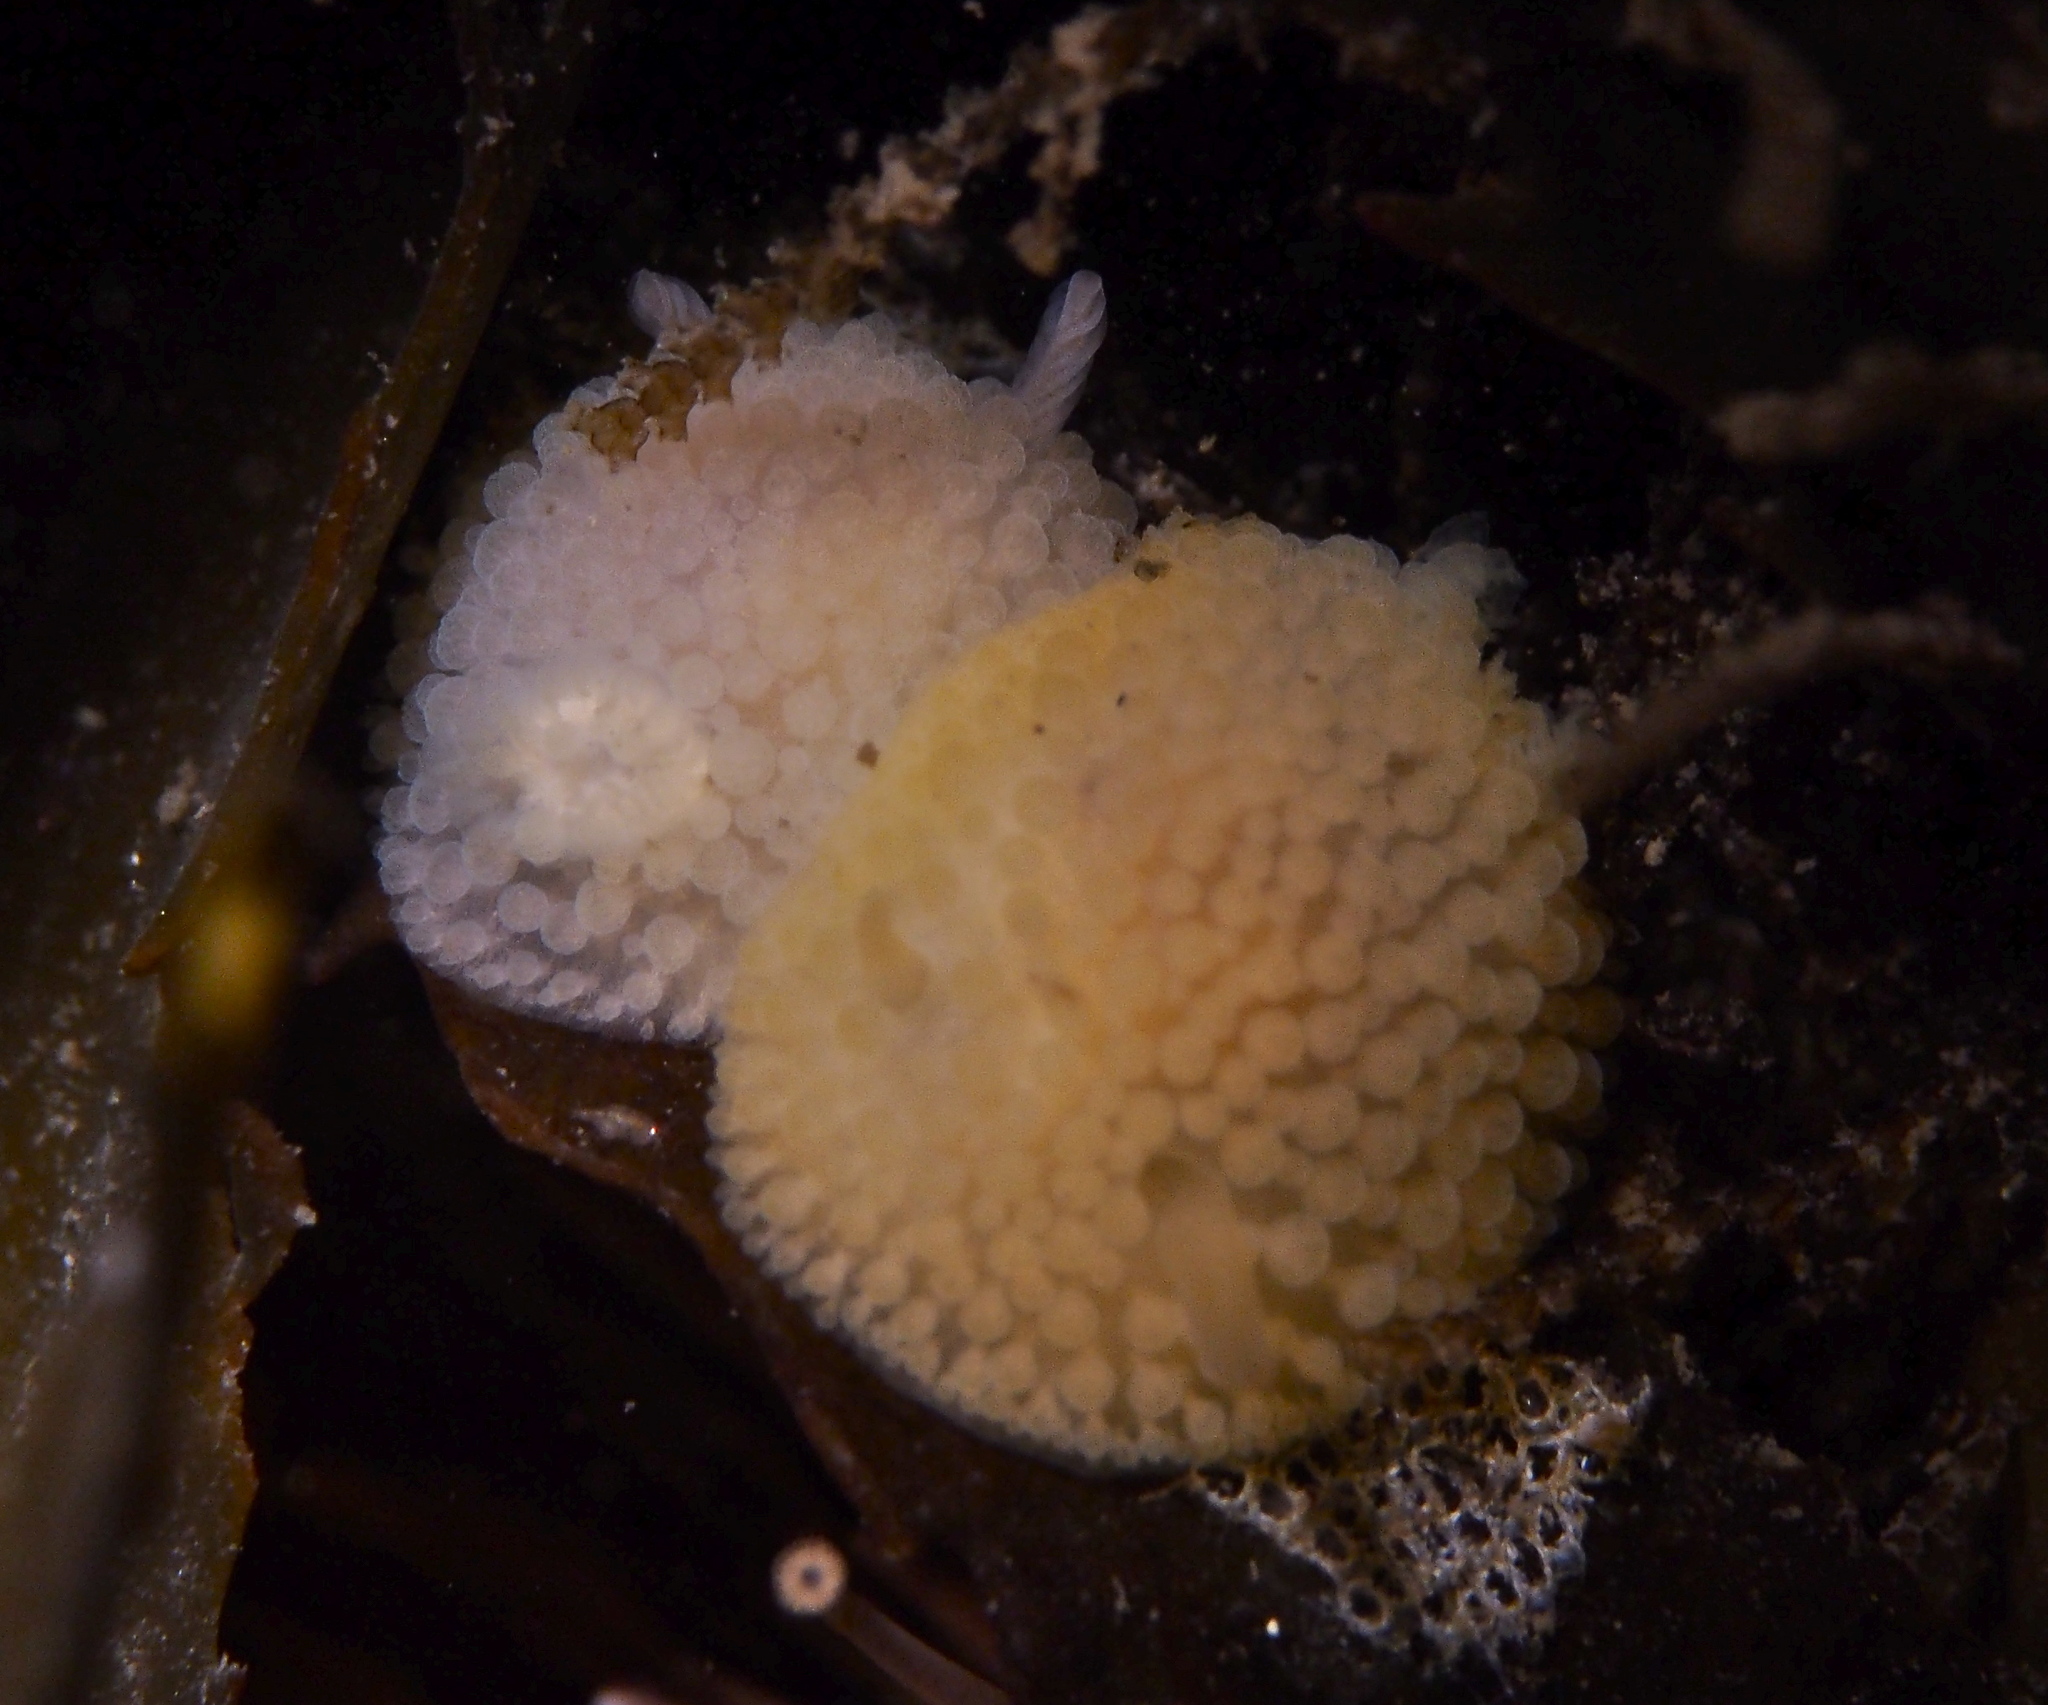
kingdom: Animalia
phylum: Mollusca
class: Gastropoda
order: Nudibranchia
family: Onchidorididae
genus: Onchidoris
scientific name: Onchidoris muricata
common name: Rough doris
